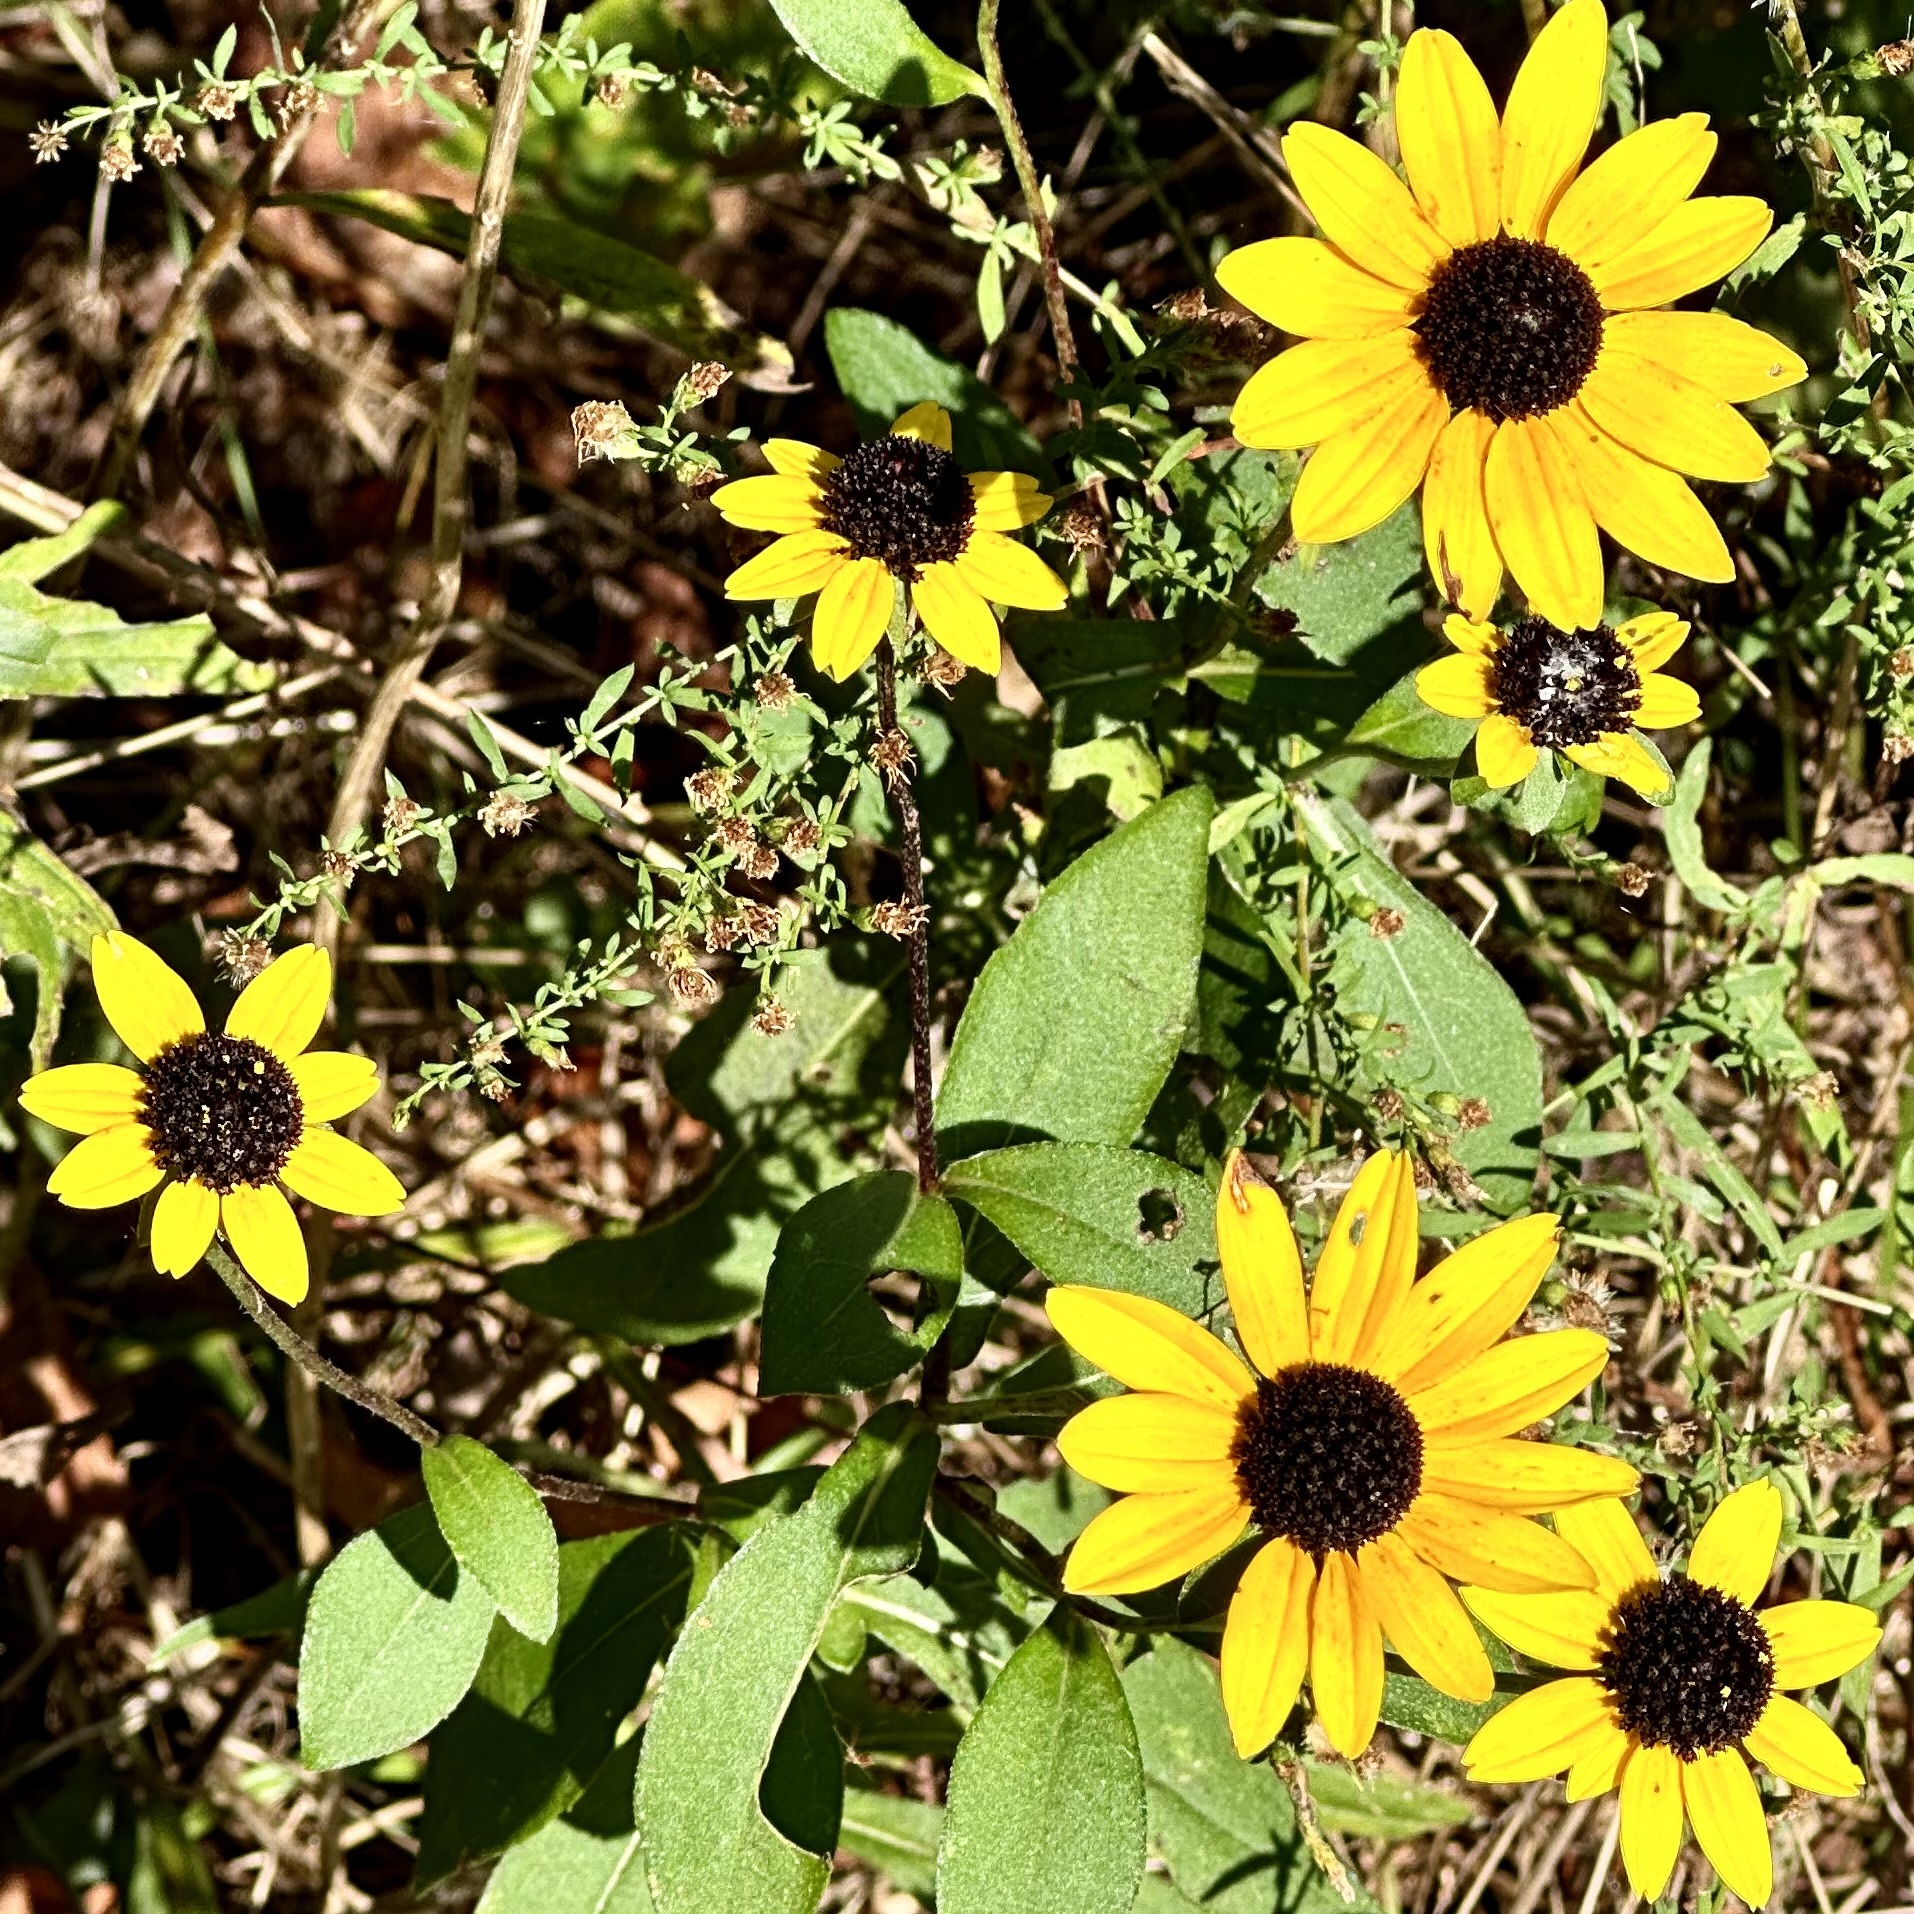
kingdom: Plantae
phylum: Tracheophyta
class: Magnoliopsida
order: Asterales
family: Asteraceae
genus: Rudbeckia
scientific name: Rudbeckia triloba
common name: Thin-leaved coneflower
